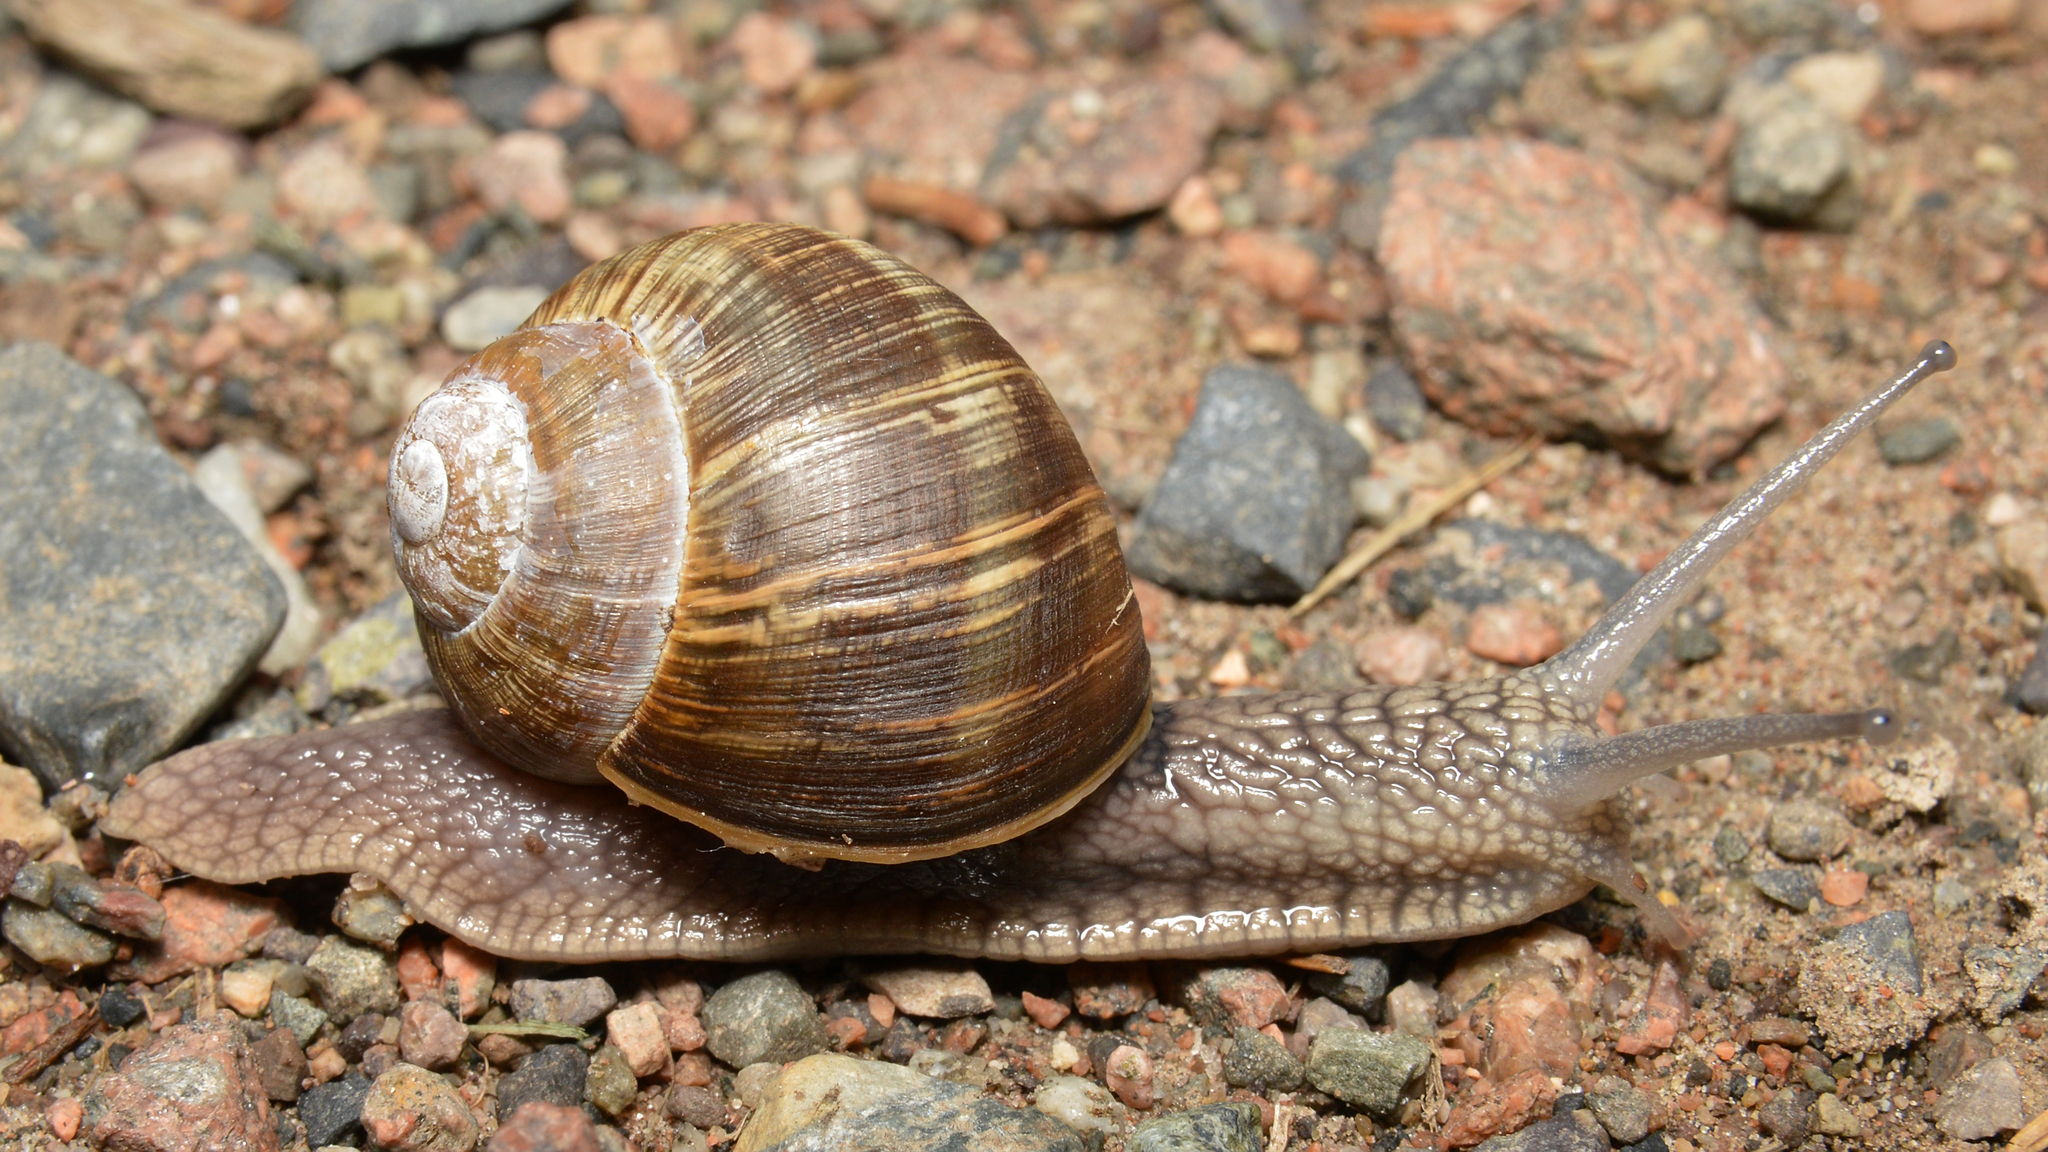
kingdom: Animalia
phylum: Mollusca
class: Gastropoda
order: Stylommatophora
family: Helicidae
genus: Helix
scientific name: Helix pomatia
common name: Roman snail
